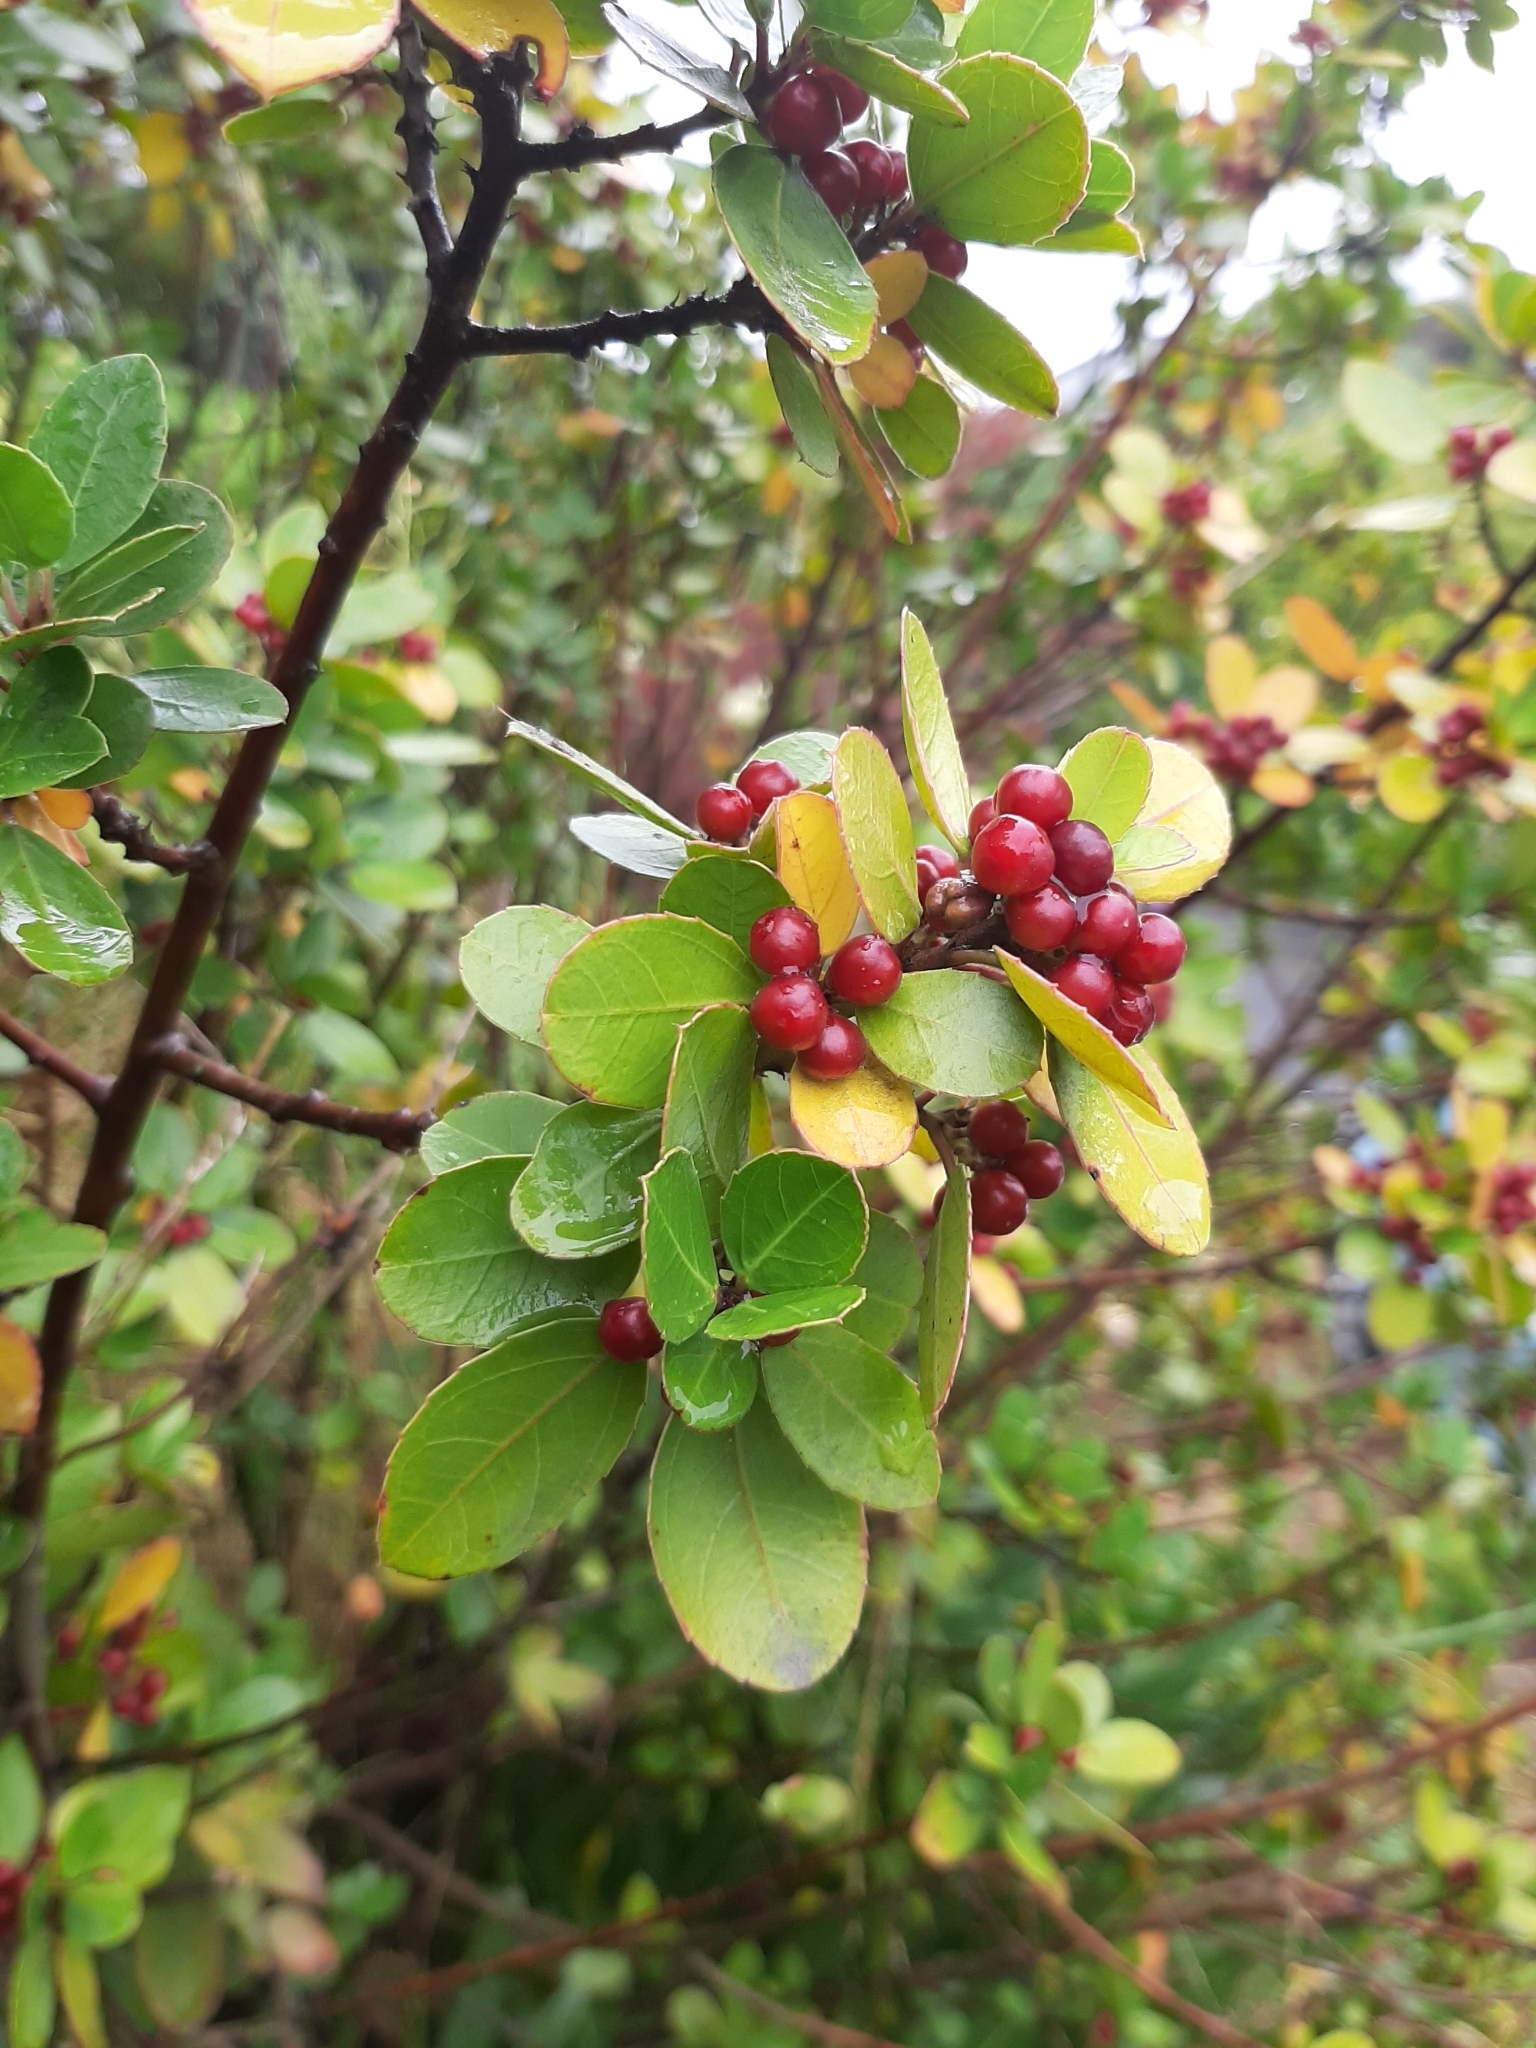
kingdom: Plantae
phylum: Tracheophyta
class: Magnoliopsida
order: Rosales
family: Rhamnaceae
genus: Rhamnus
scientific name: Rhamnus alaternus
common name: Mediterranean buckthorn
